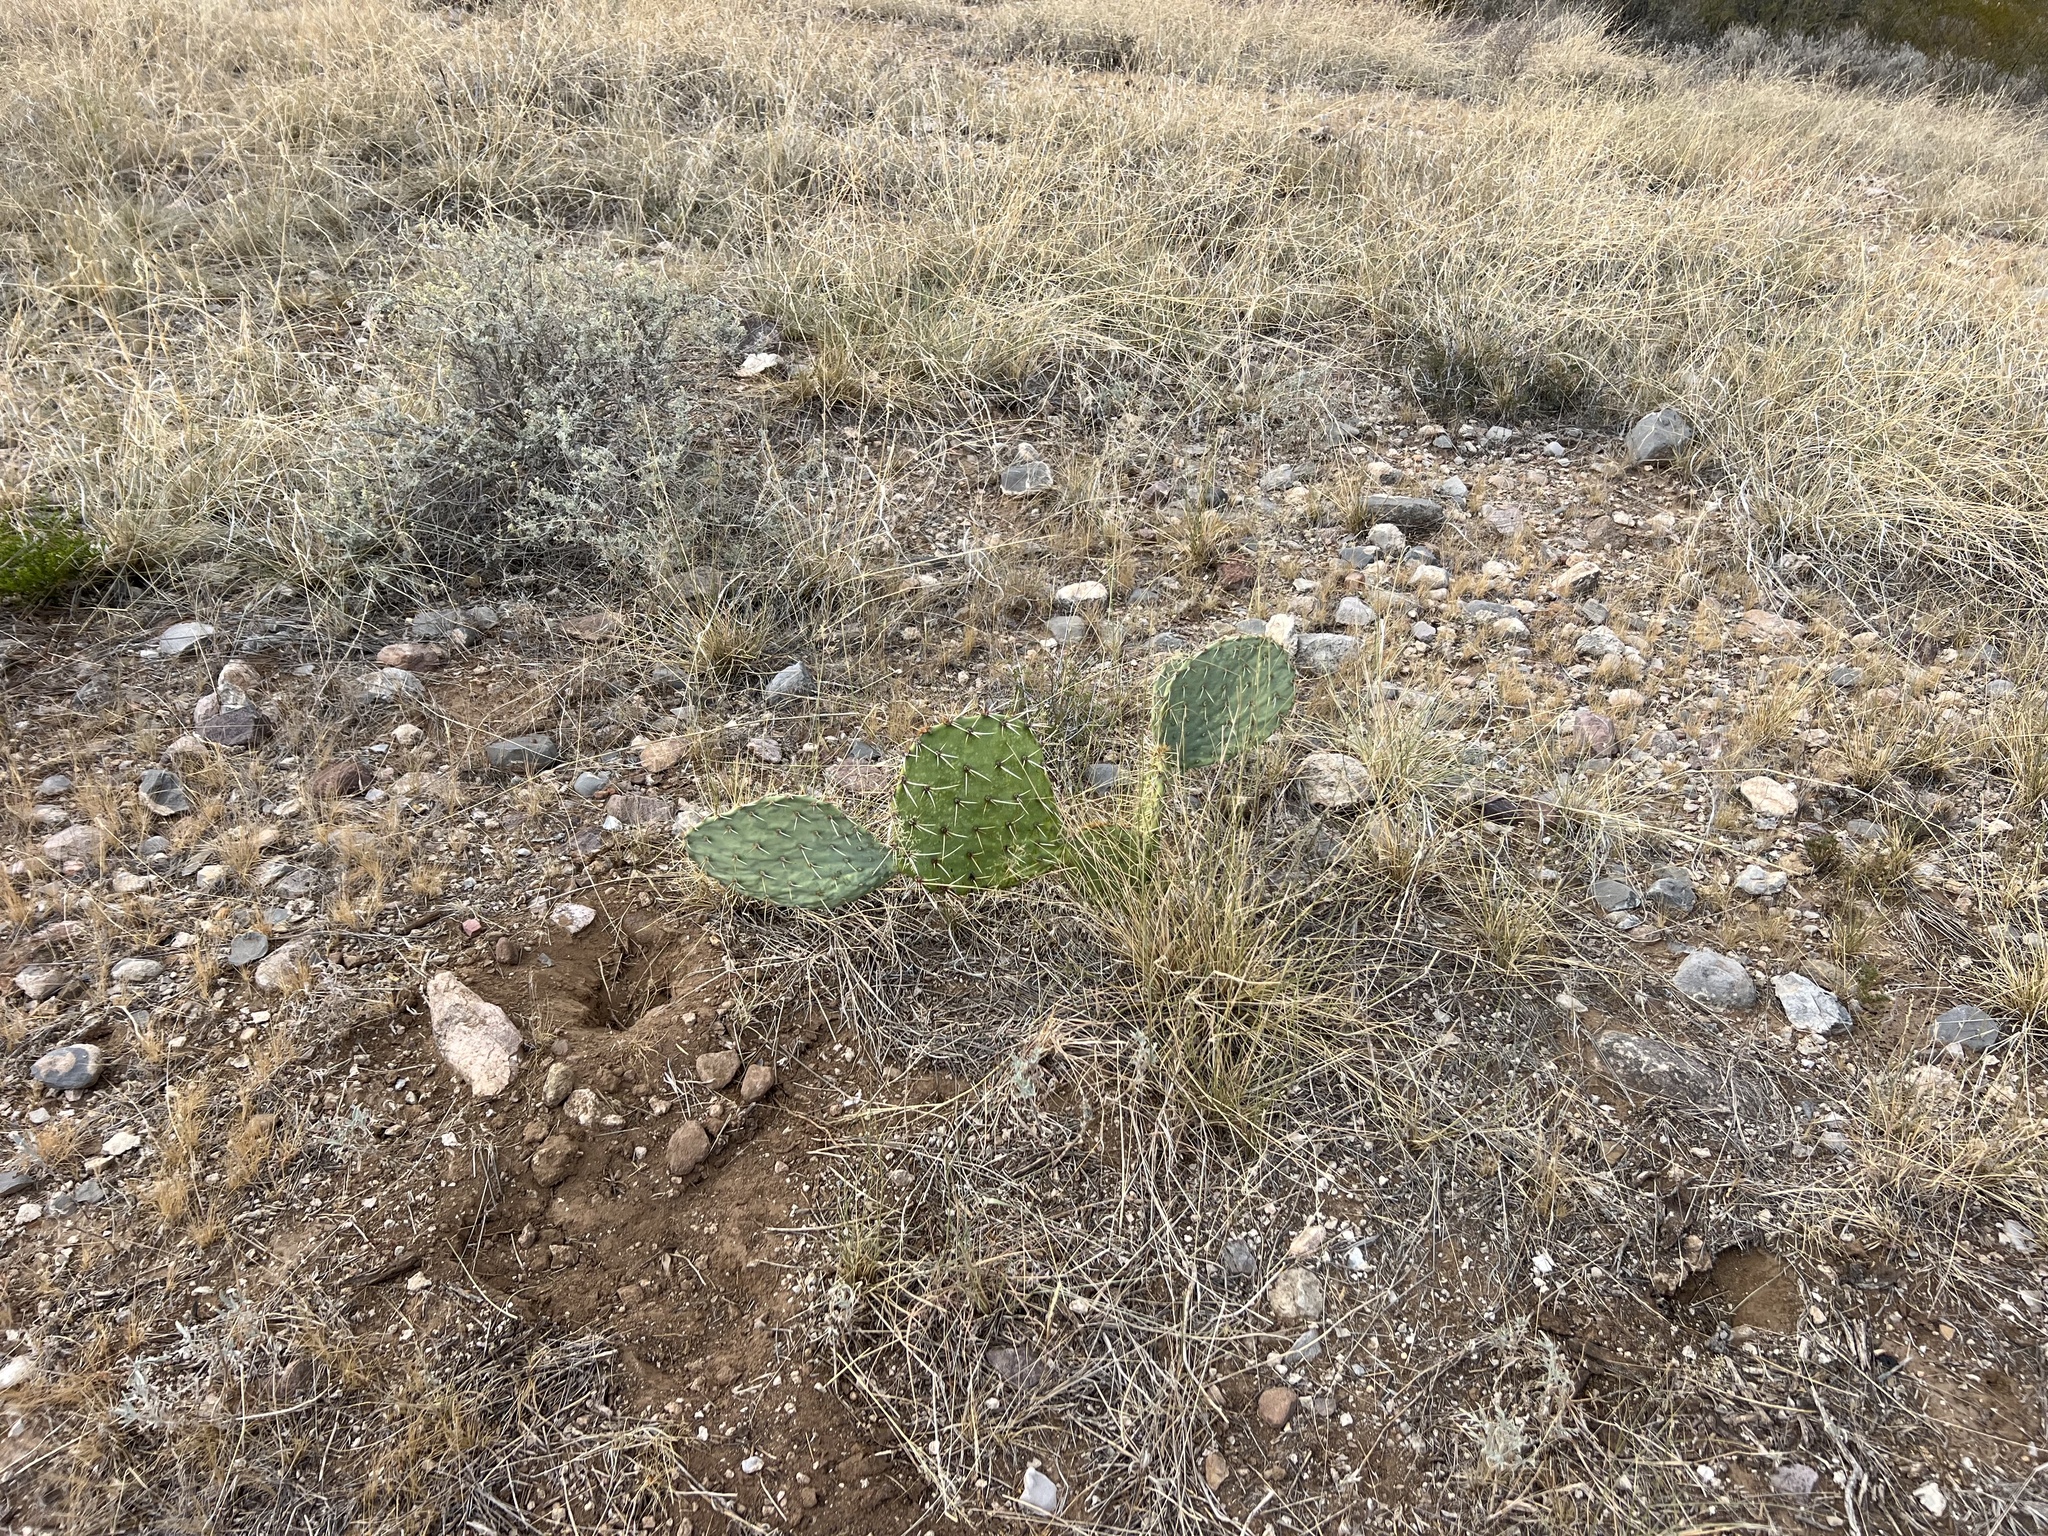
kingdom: Plantae
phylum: Tracheophyta
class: Magnoliopsida
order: Caryophyllales
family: Cactaceae
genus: Opuntia
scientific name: Opuntia engelmannii
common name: Cactus-apple
